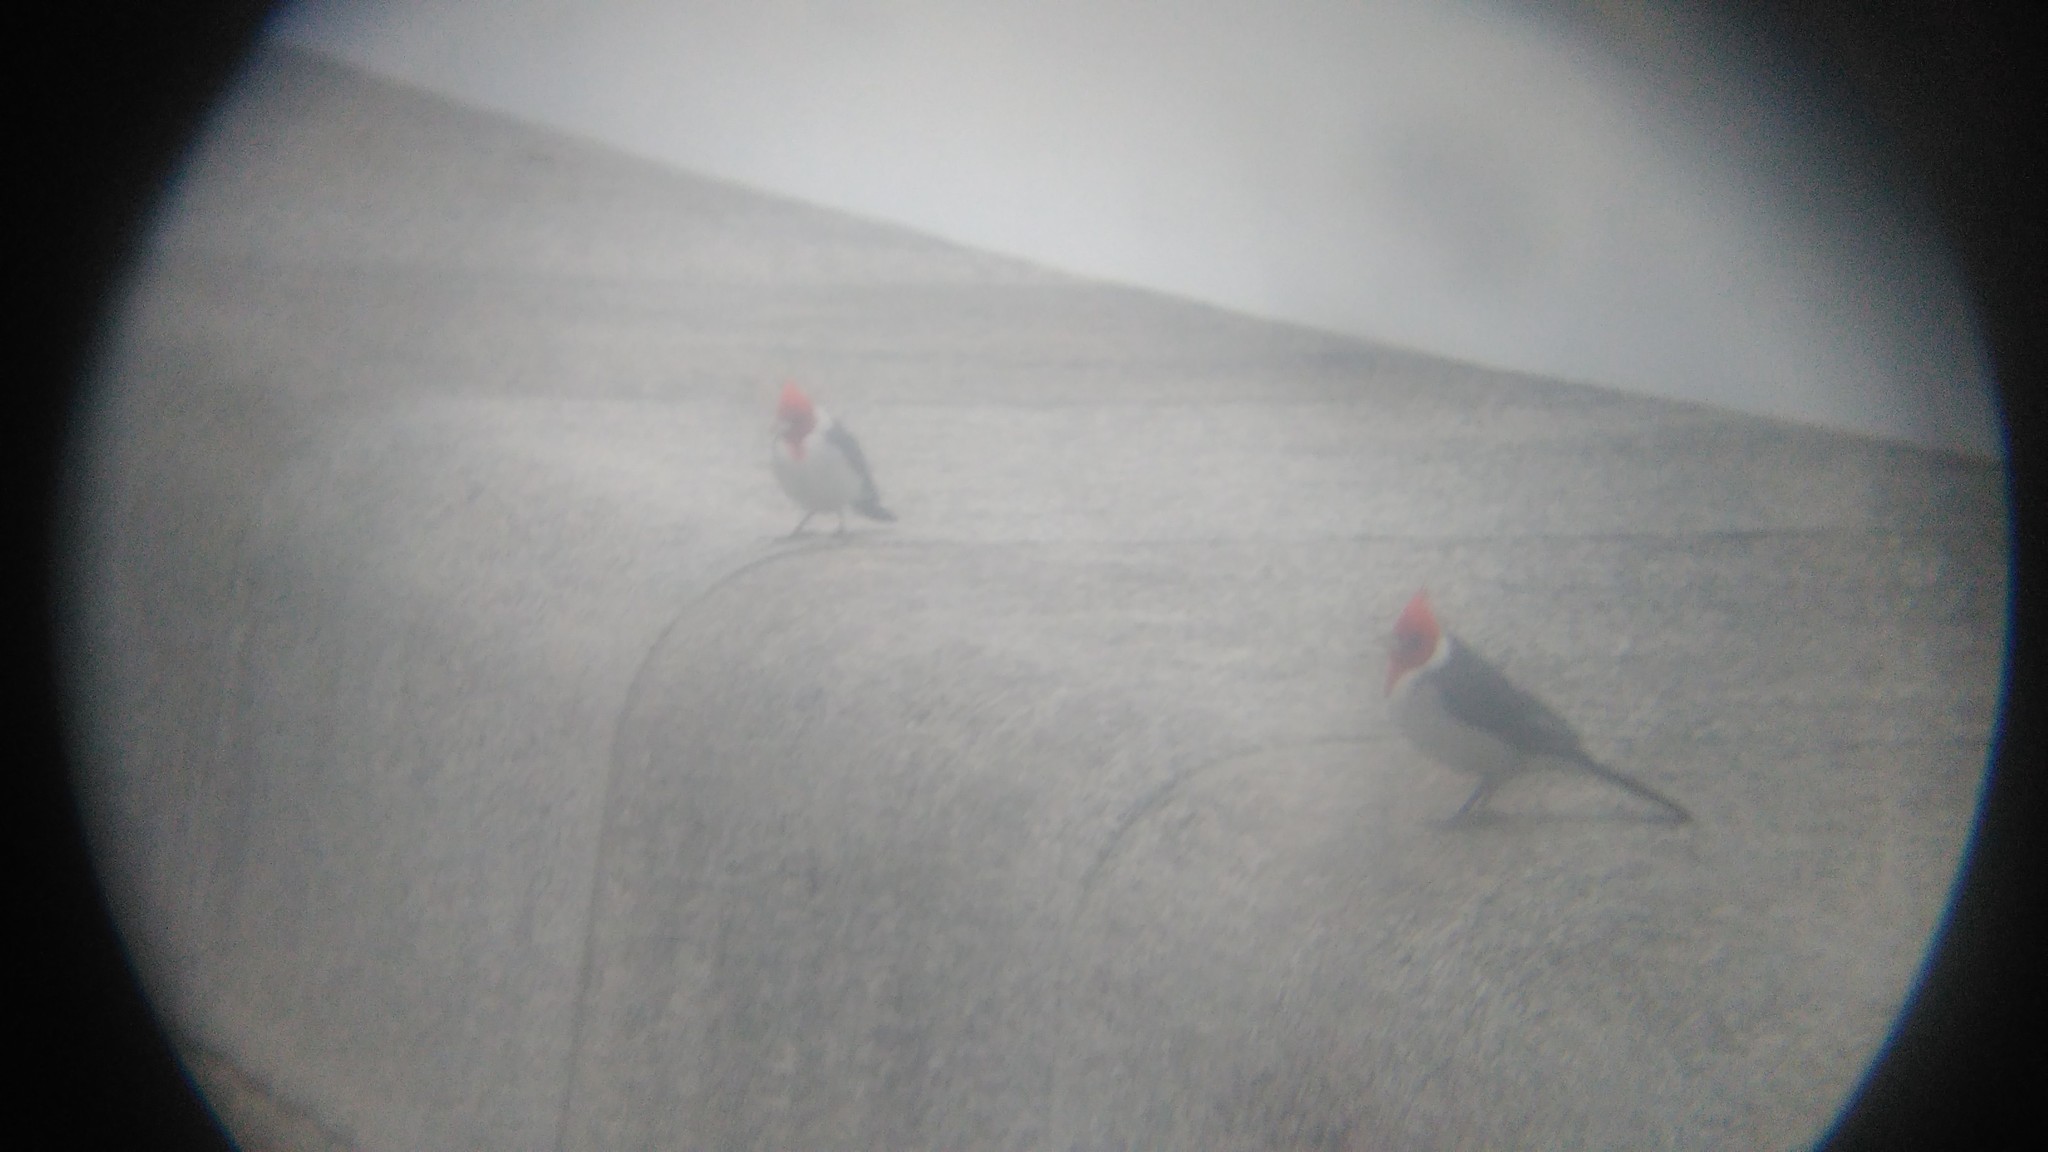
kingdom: Animalia
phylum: Chordata
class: Aves
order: Passeriformes
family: Thraupidae
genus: Paroaria
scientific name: Paroaria coronata
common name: Red-crested cardinal
